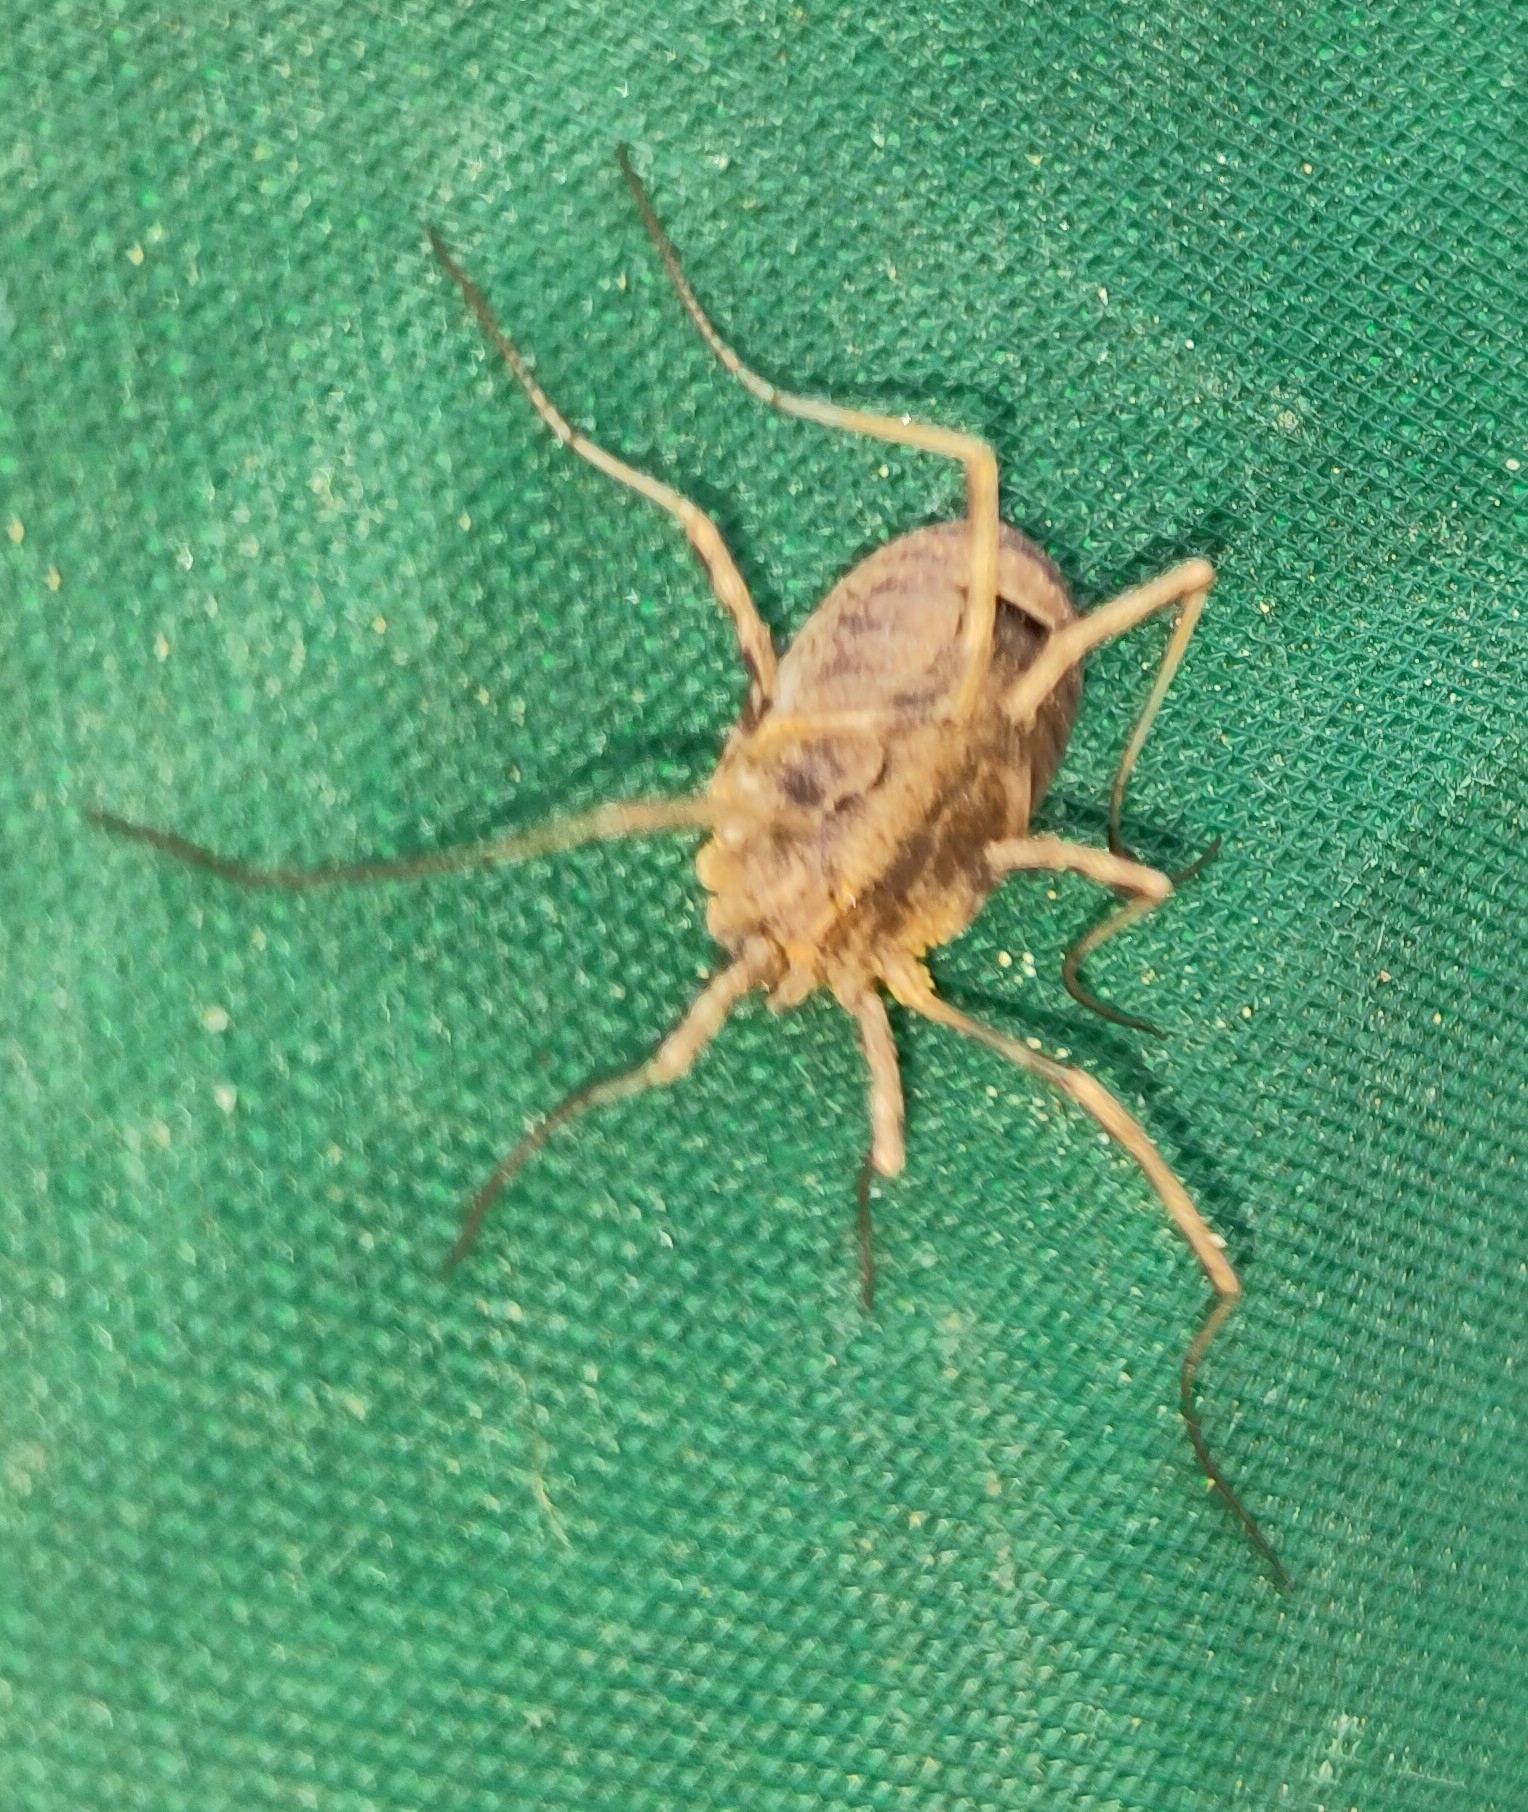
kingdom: Animalia
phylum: Arthropoda
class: Arachnida
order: Opiliones
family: Phalangiidae
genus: Odiellus
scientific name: Odiellus spinosus
